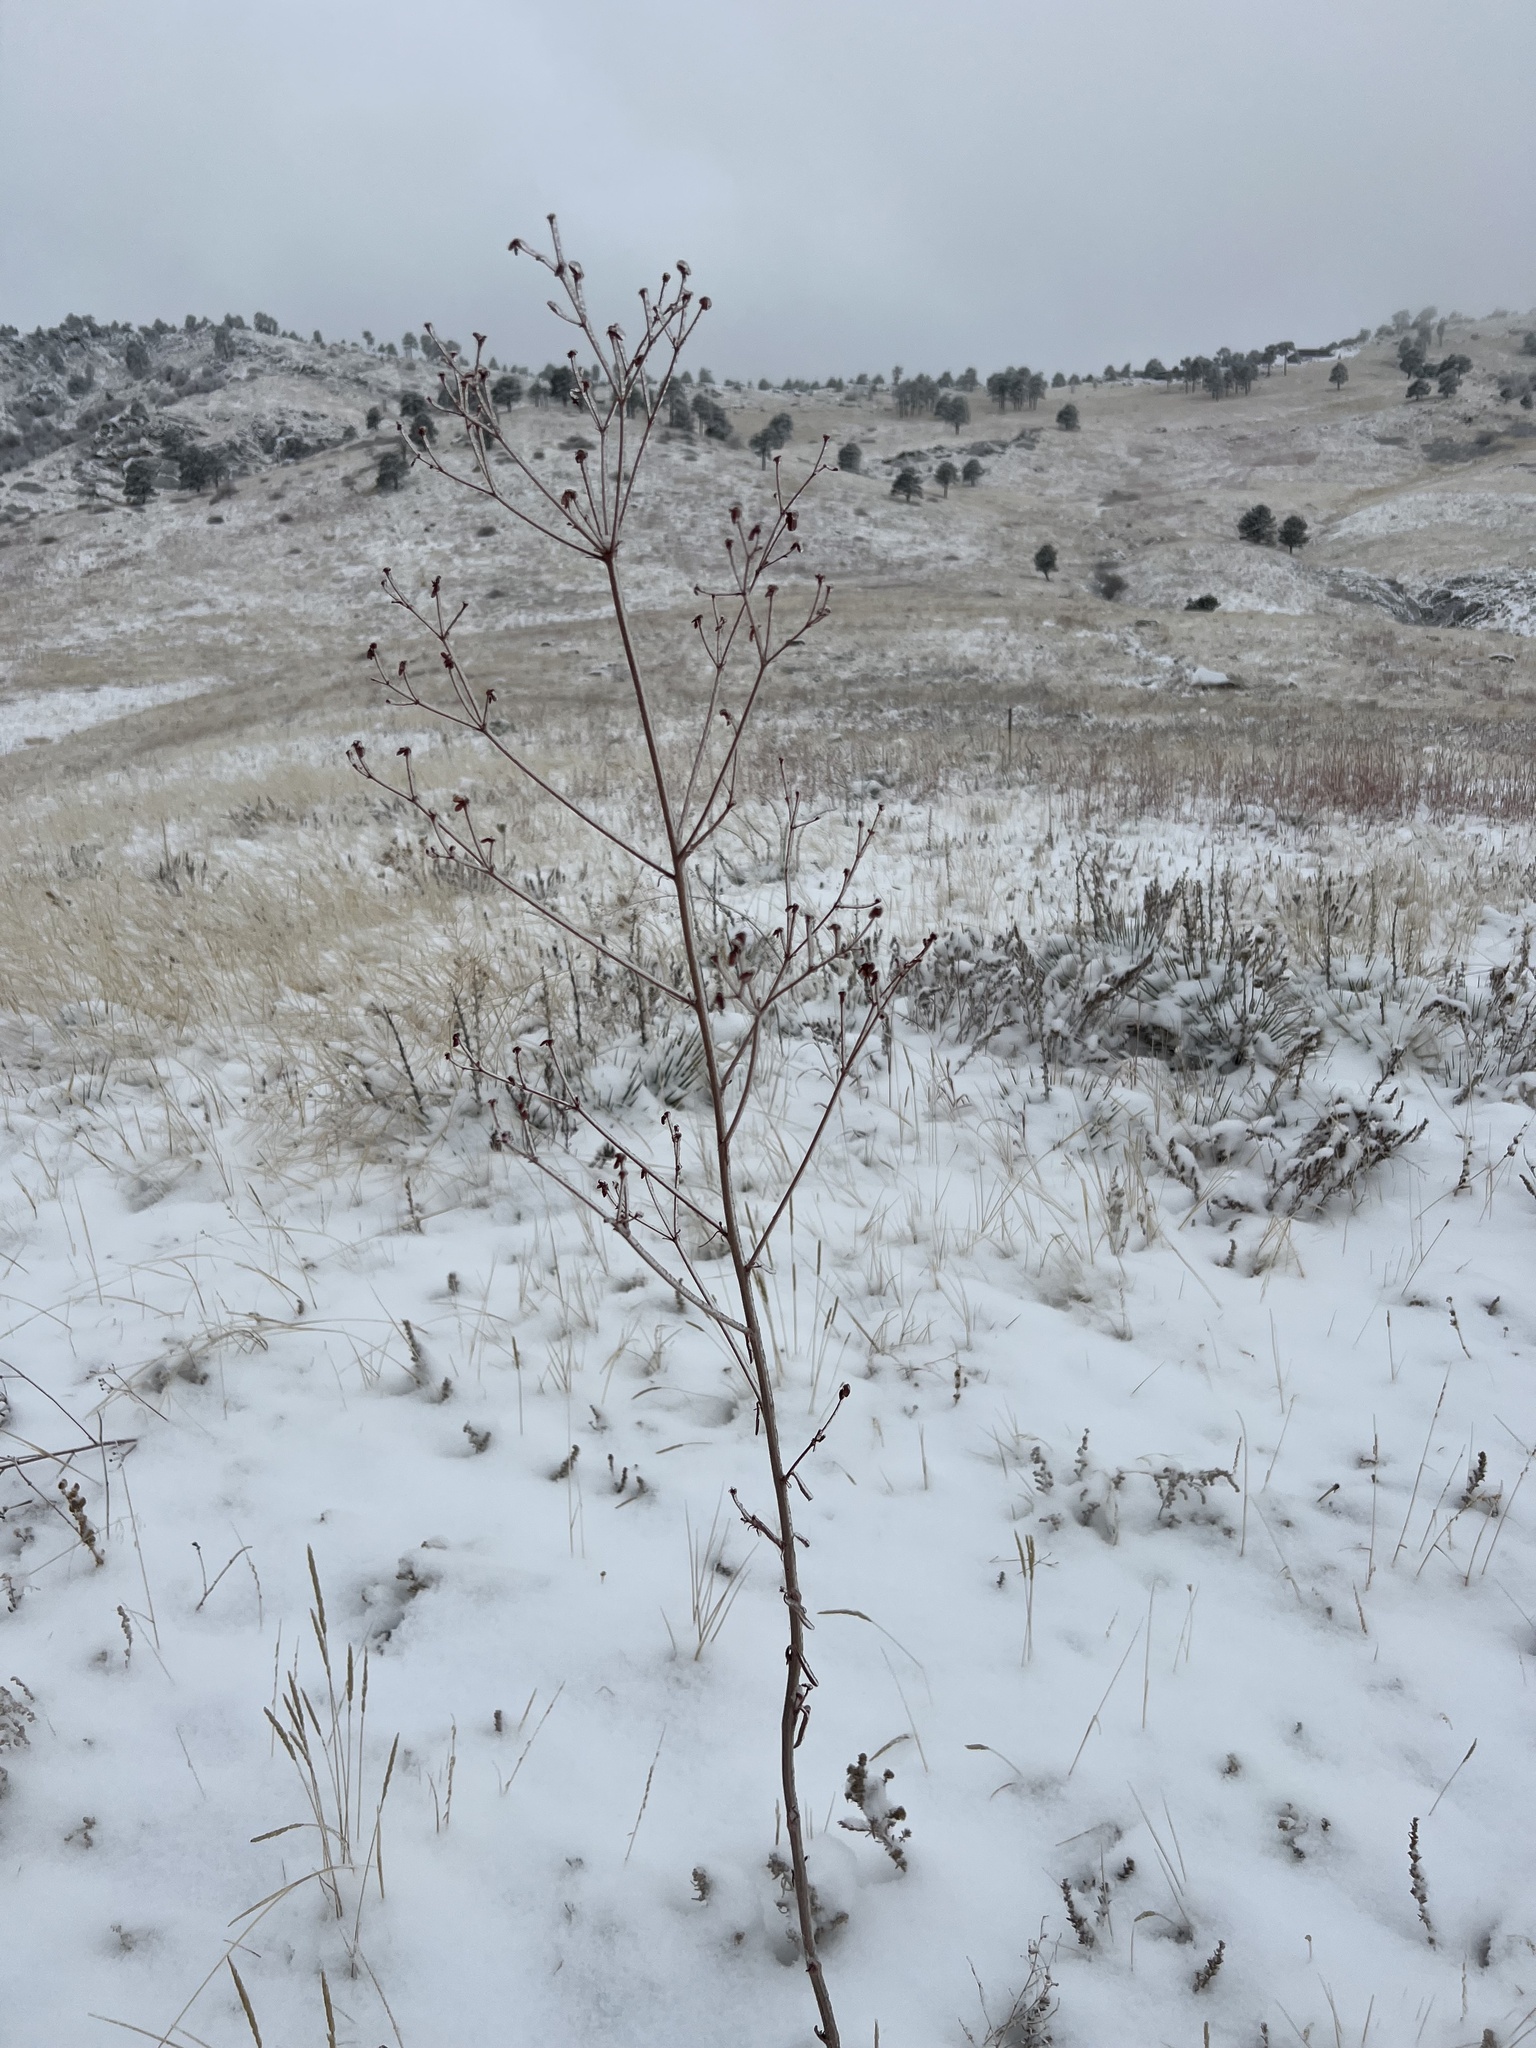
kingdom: Plantae
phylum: Tracheophyta
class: Magnoliopsida
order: Caryophyllales
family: Polygonaceae
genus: Eriogonum
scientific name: Eriogonum alatum
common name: Winged eriogonum
